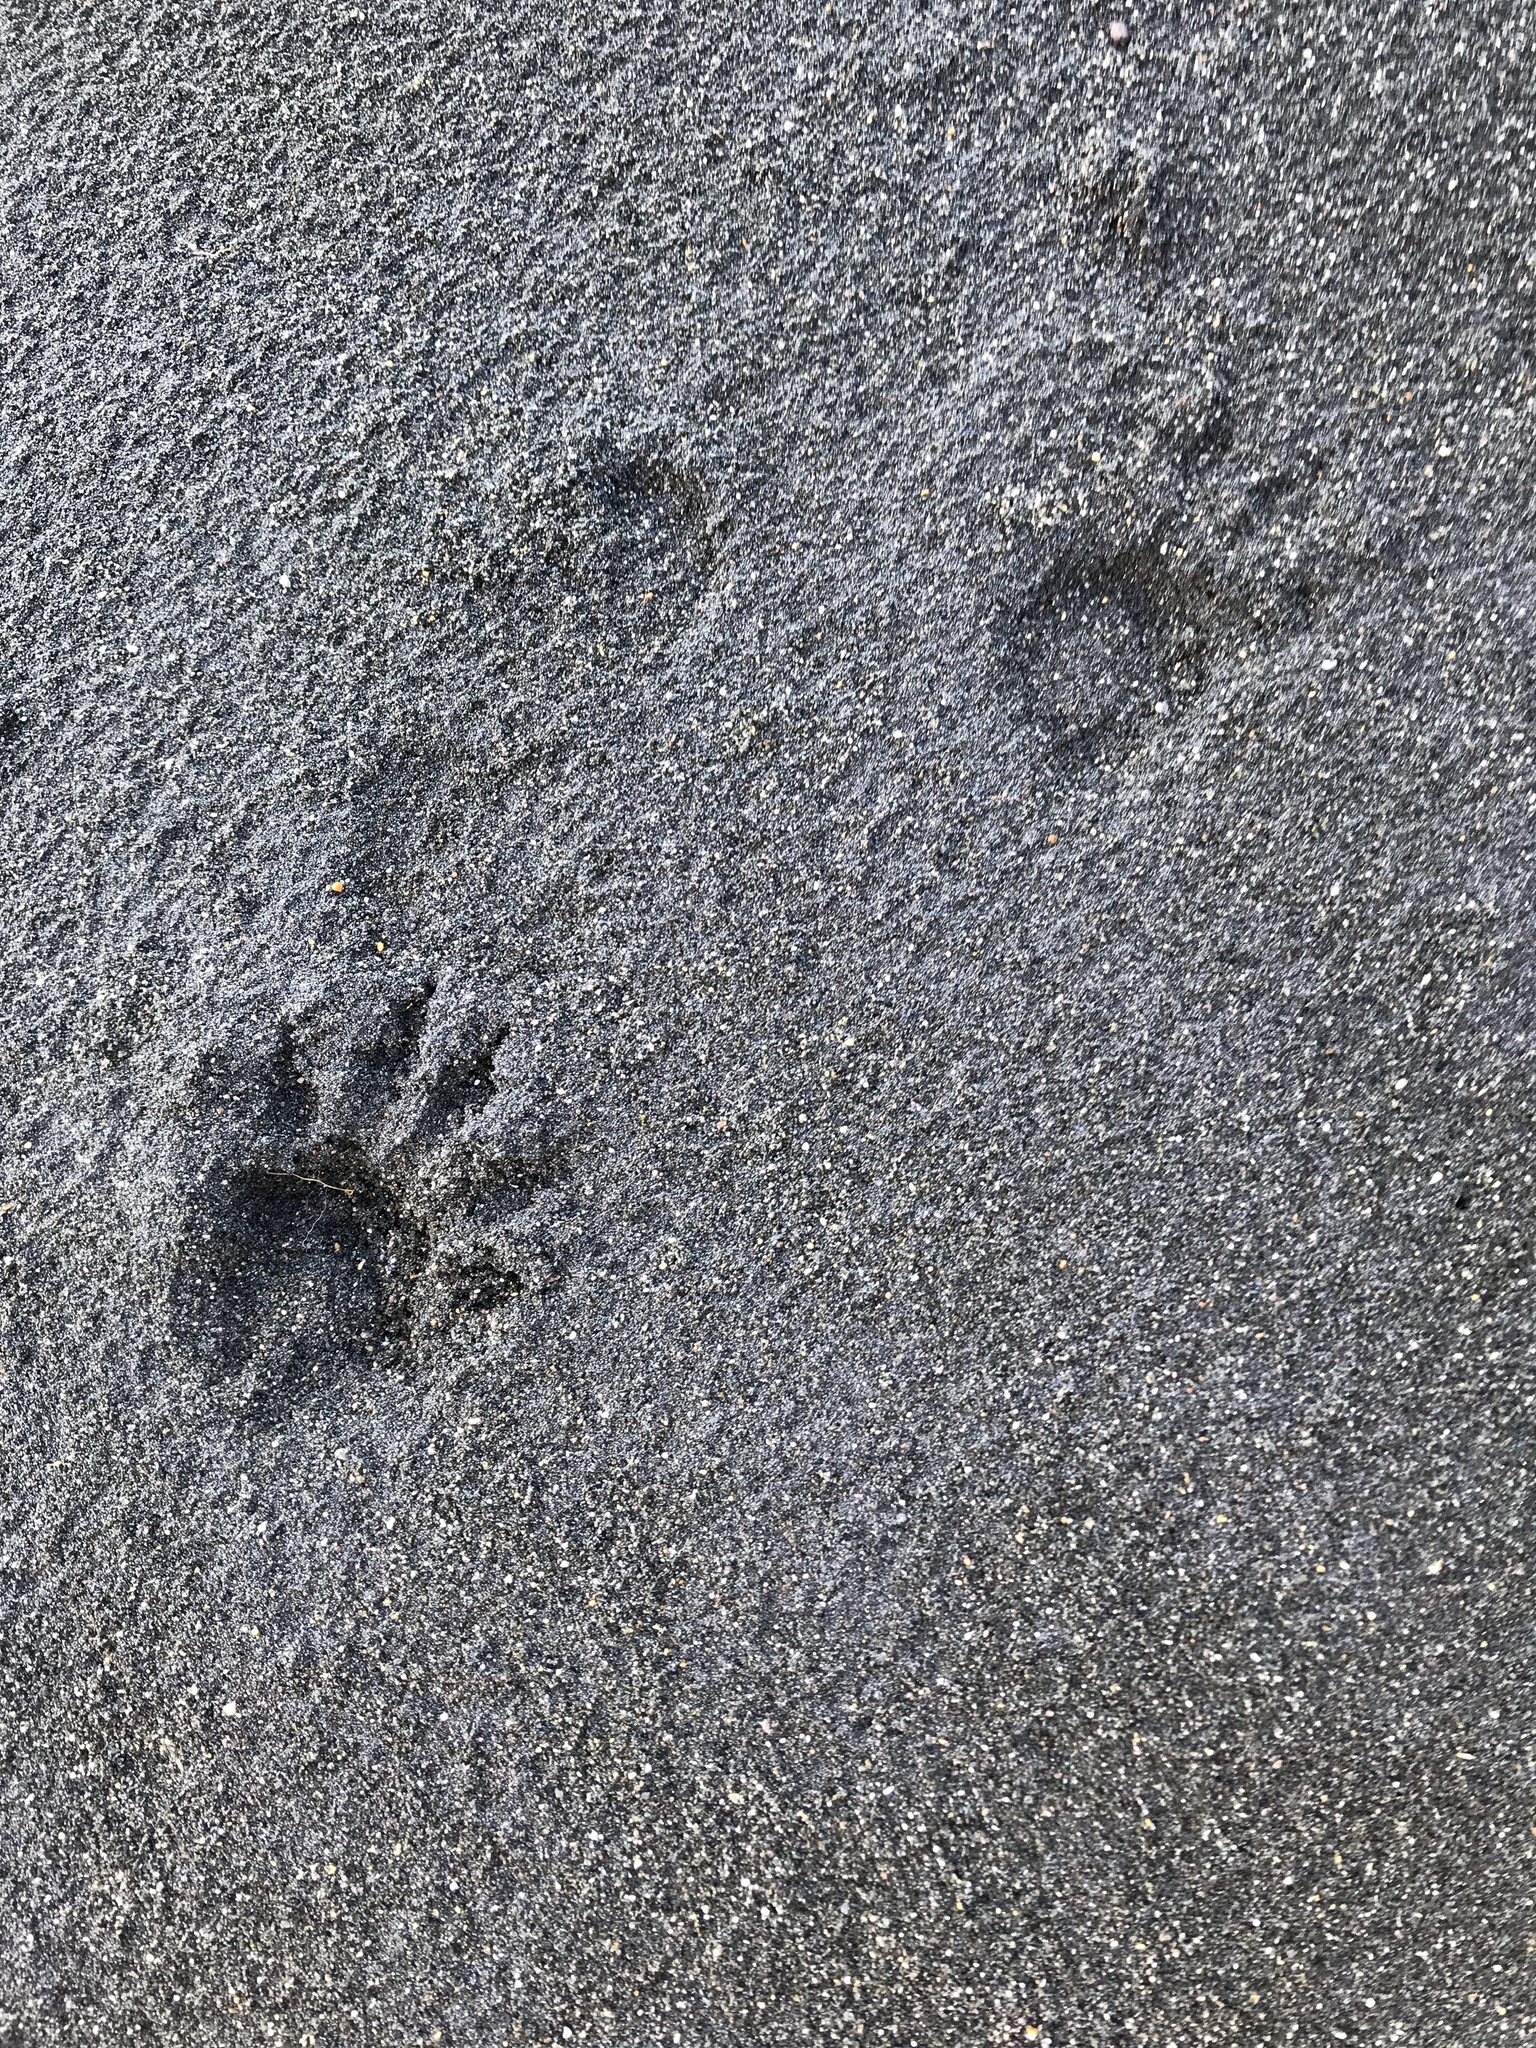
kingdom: Animalia
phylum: Chordata
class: Mammalia
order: Diprotodontia
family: Phalangeridae
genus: Trichosurus
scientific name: Trichosurus vulpecula
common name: Common brushtail
